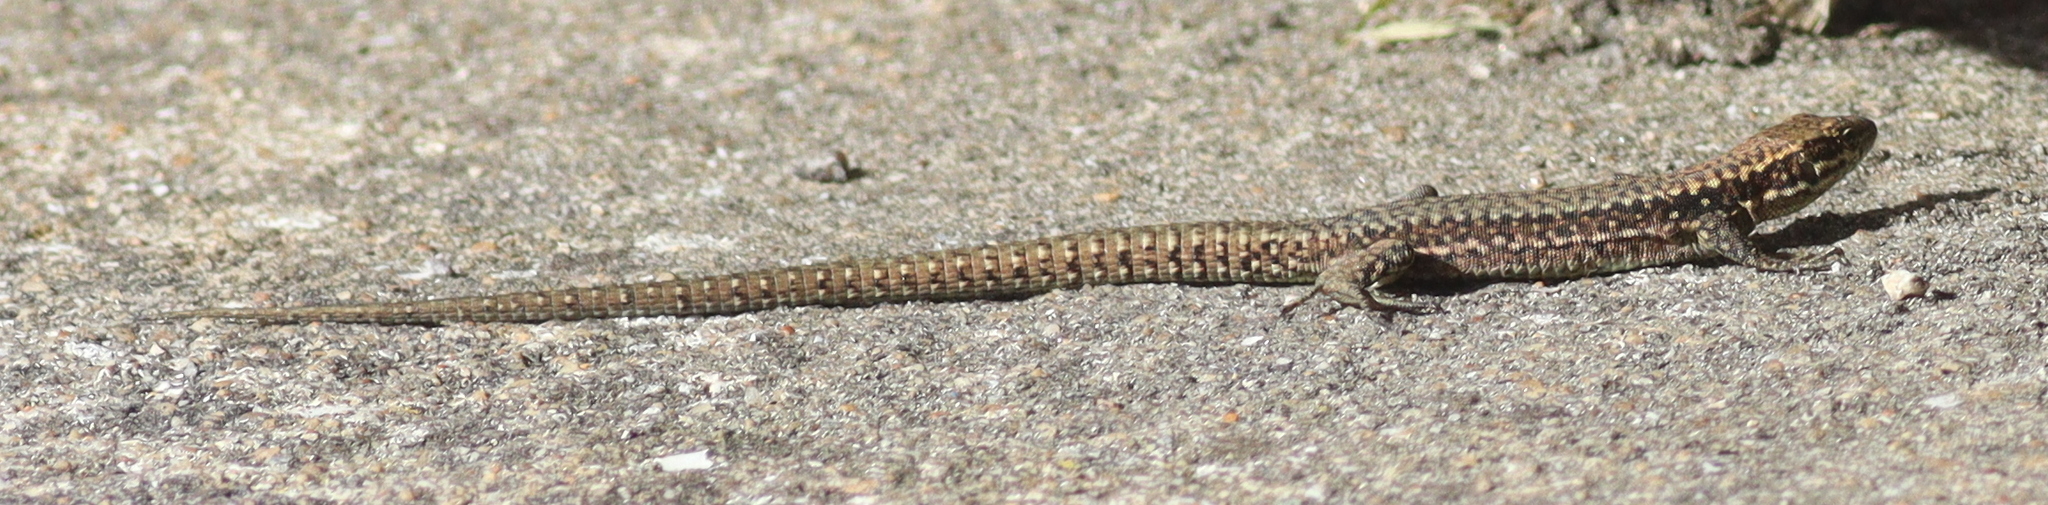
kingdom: Animalia
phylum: Chordata
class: Squamata
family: Lacertidae
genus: Podarcis
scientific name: Podarcis muralis
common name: Common wall lizard
